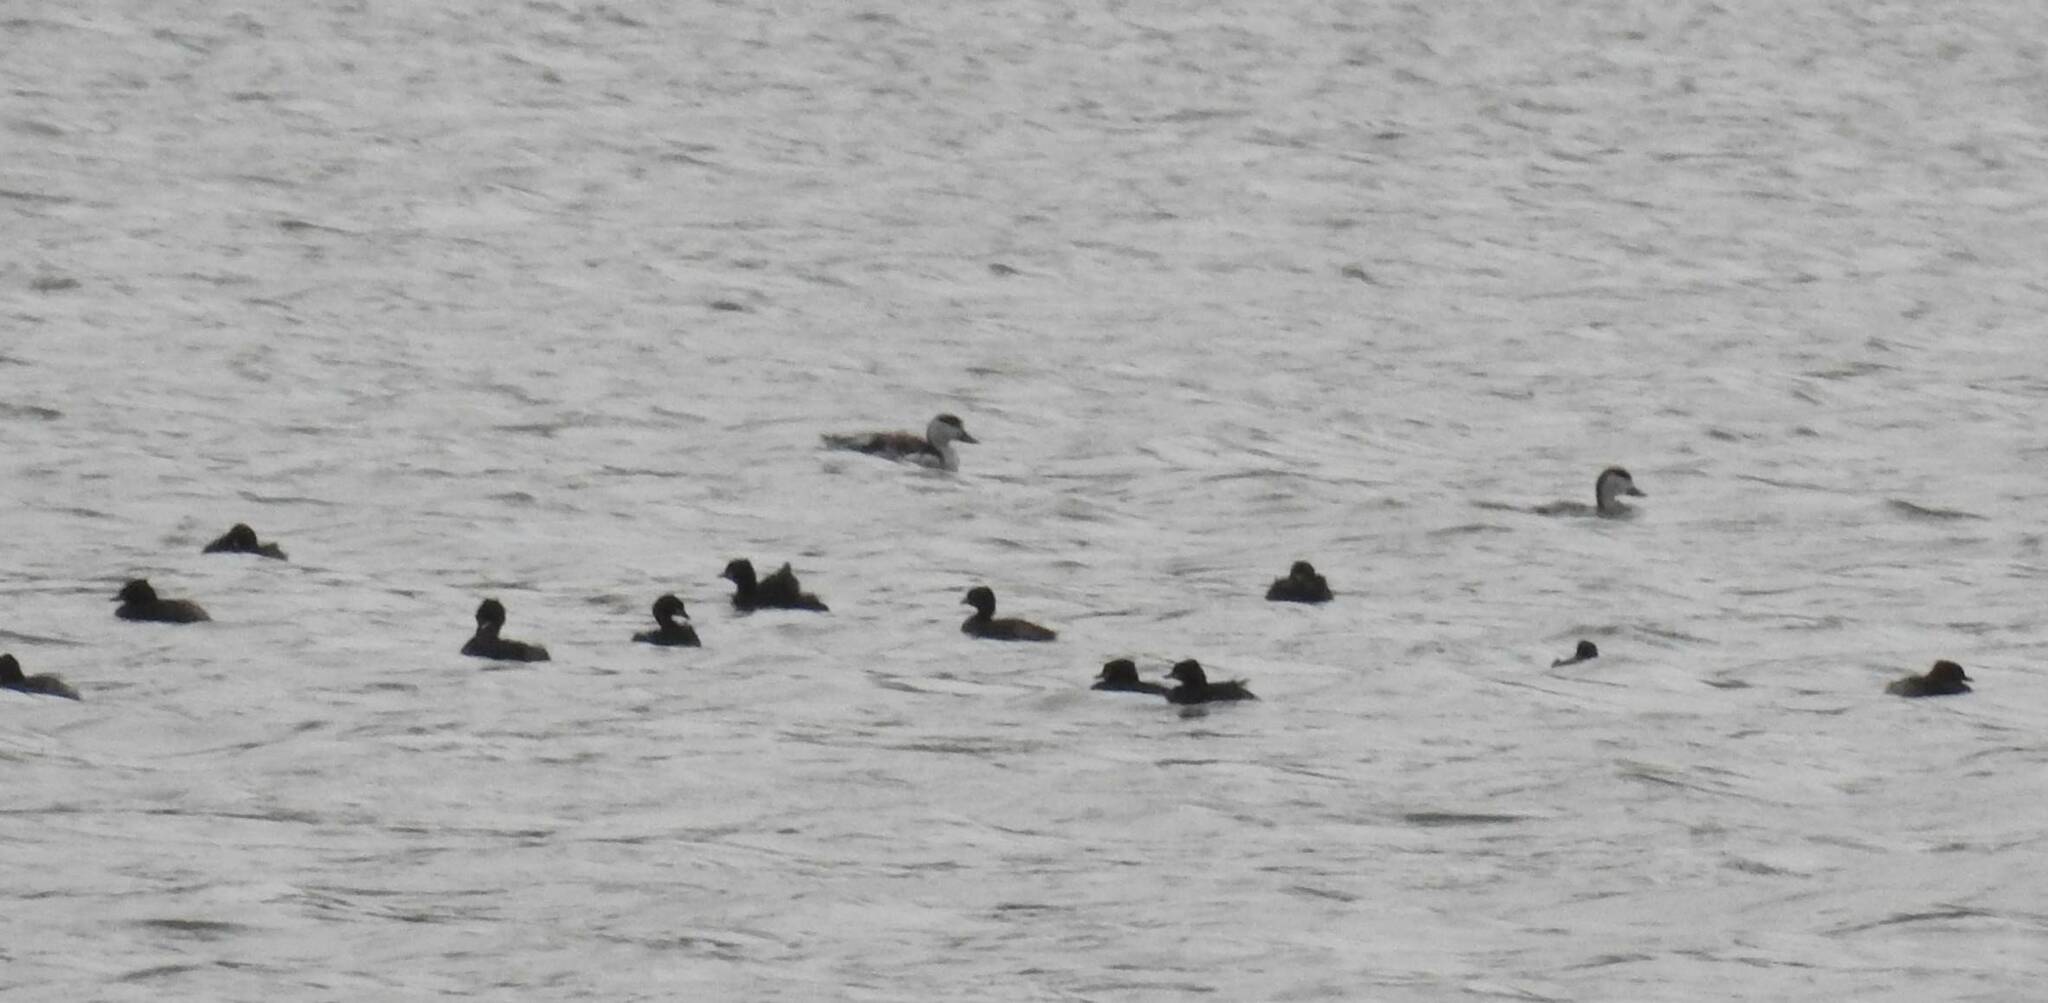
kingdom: Animalia
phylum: Chordata
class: Aves
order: Gruiformes
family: Rallidae
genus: Fulica
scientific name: Fulica atra
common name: Eurasian coot
